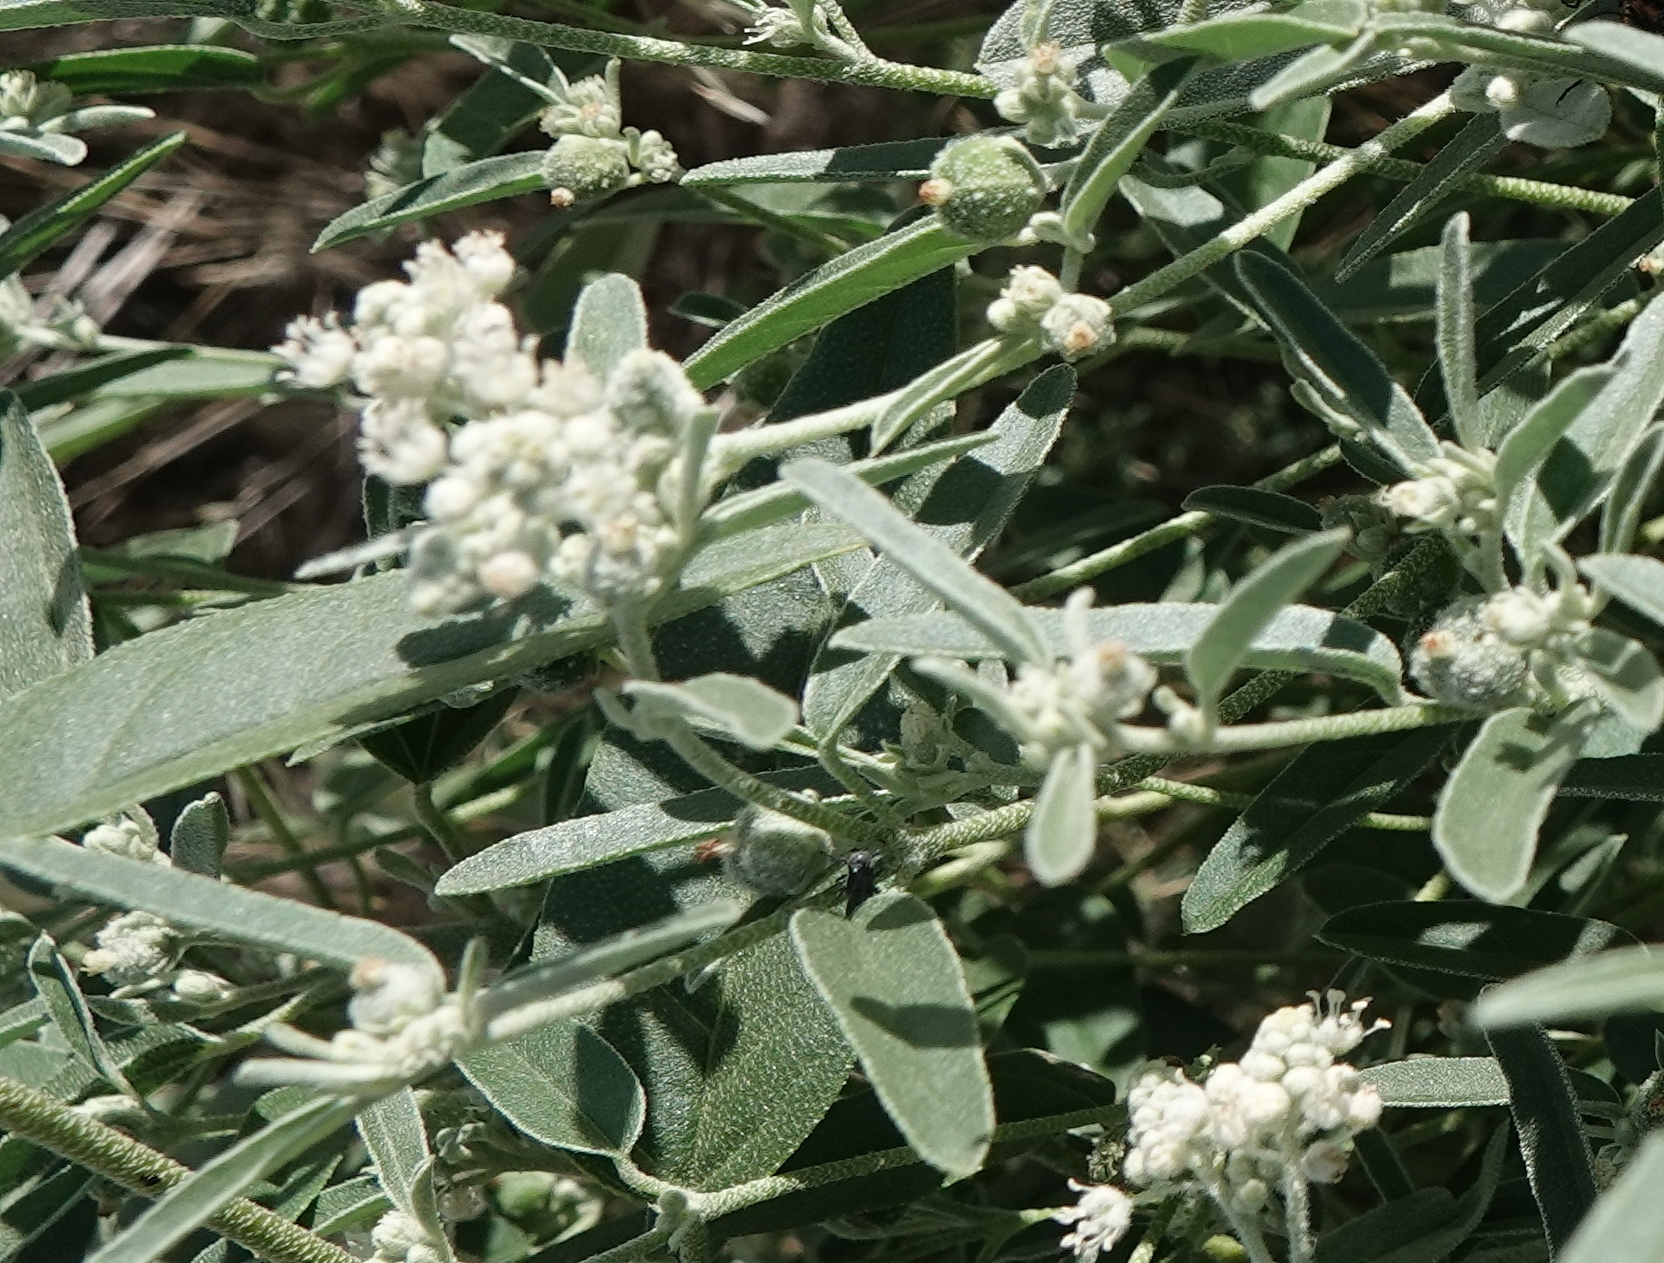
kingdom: Plantae
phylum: Tracheophyta
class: Magnoliopsida
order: Malpighiales
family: Euphorbiaceae
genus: Croton
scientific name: Croton texensis
